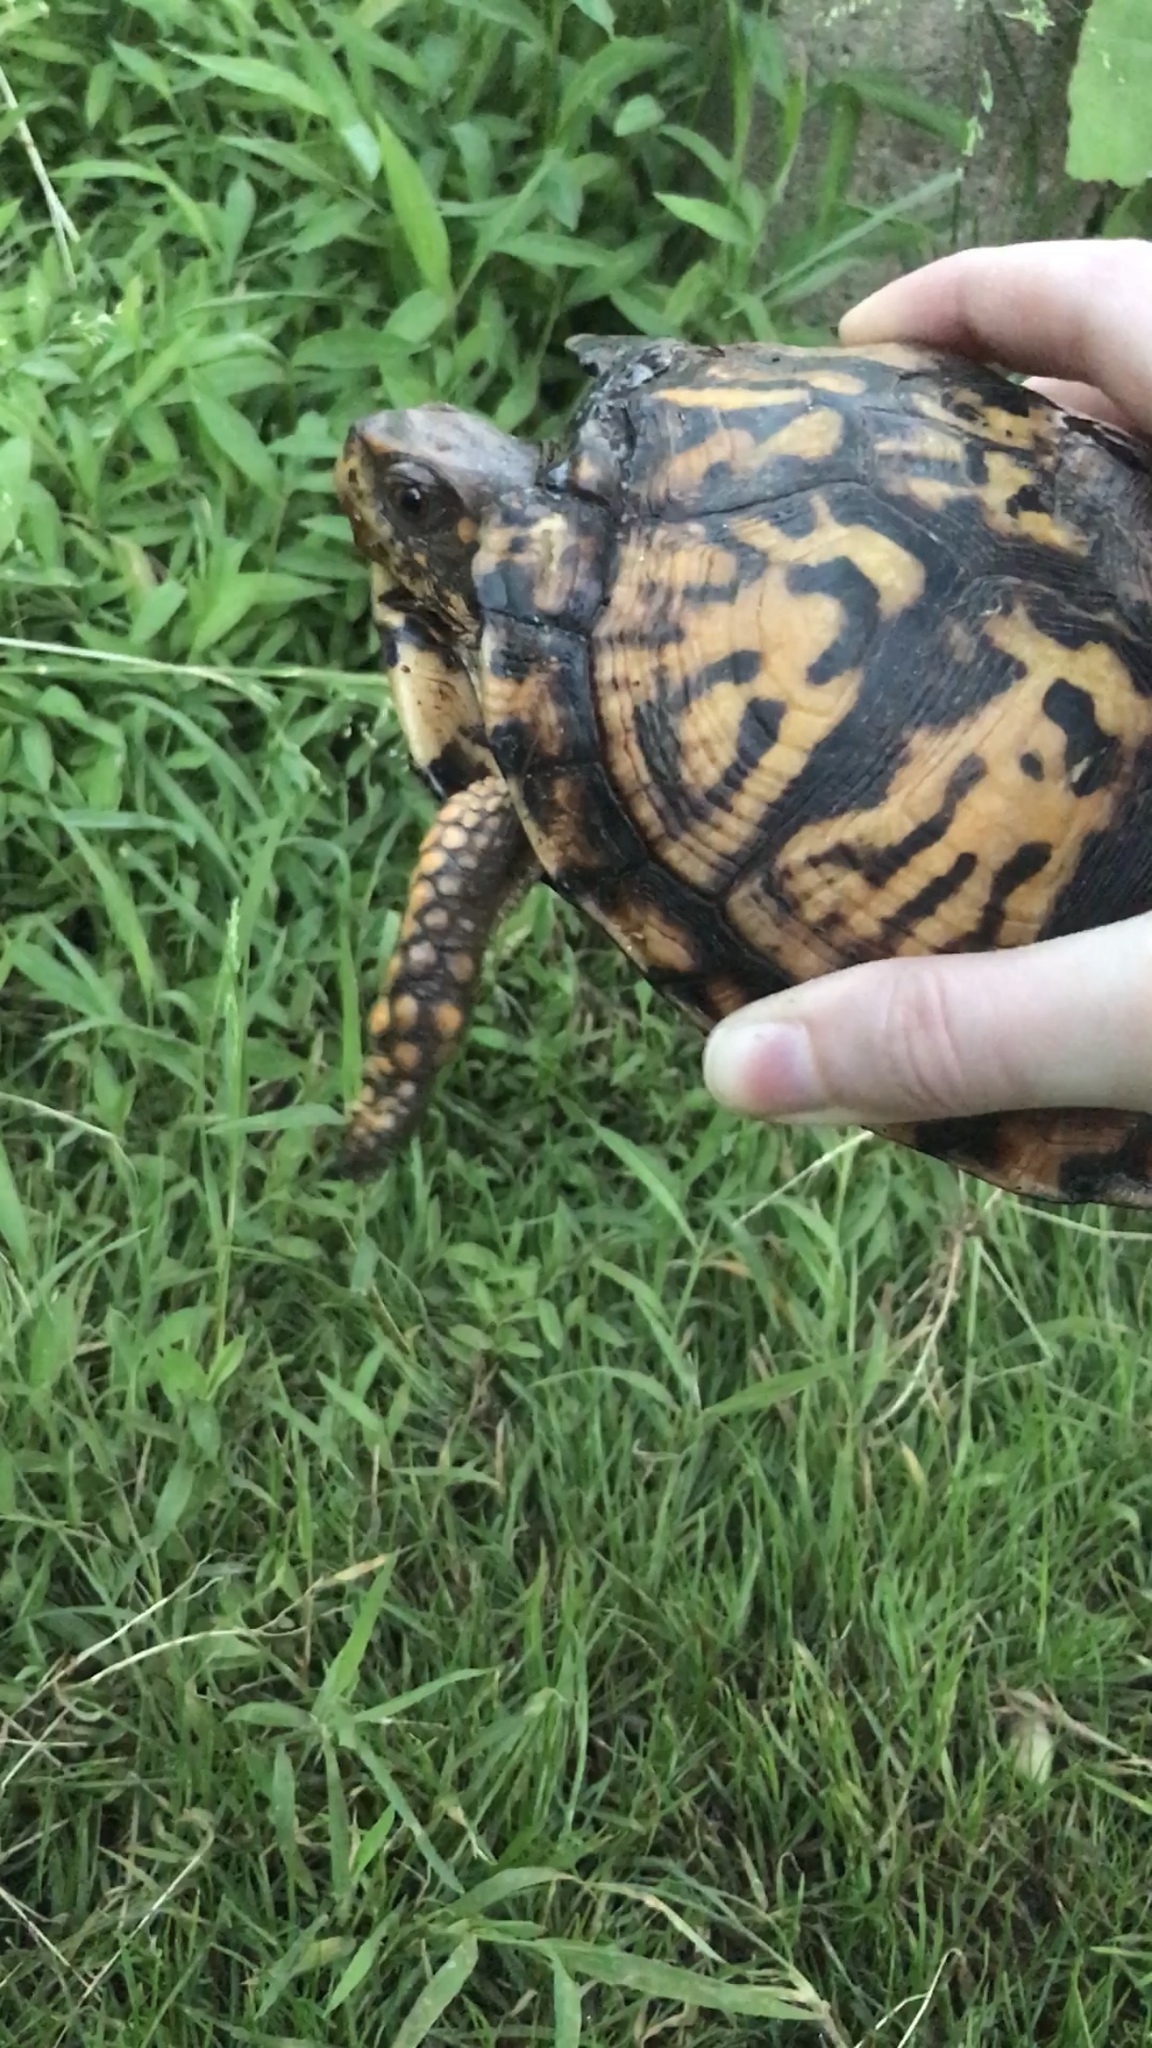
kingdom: Animalia
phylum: Chordata
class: Testudines
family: Emydidae
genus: Terrapene
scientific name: Terrapene carolina
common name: Common box turtle
